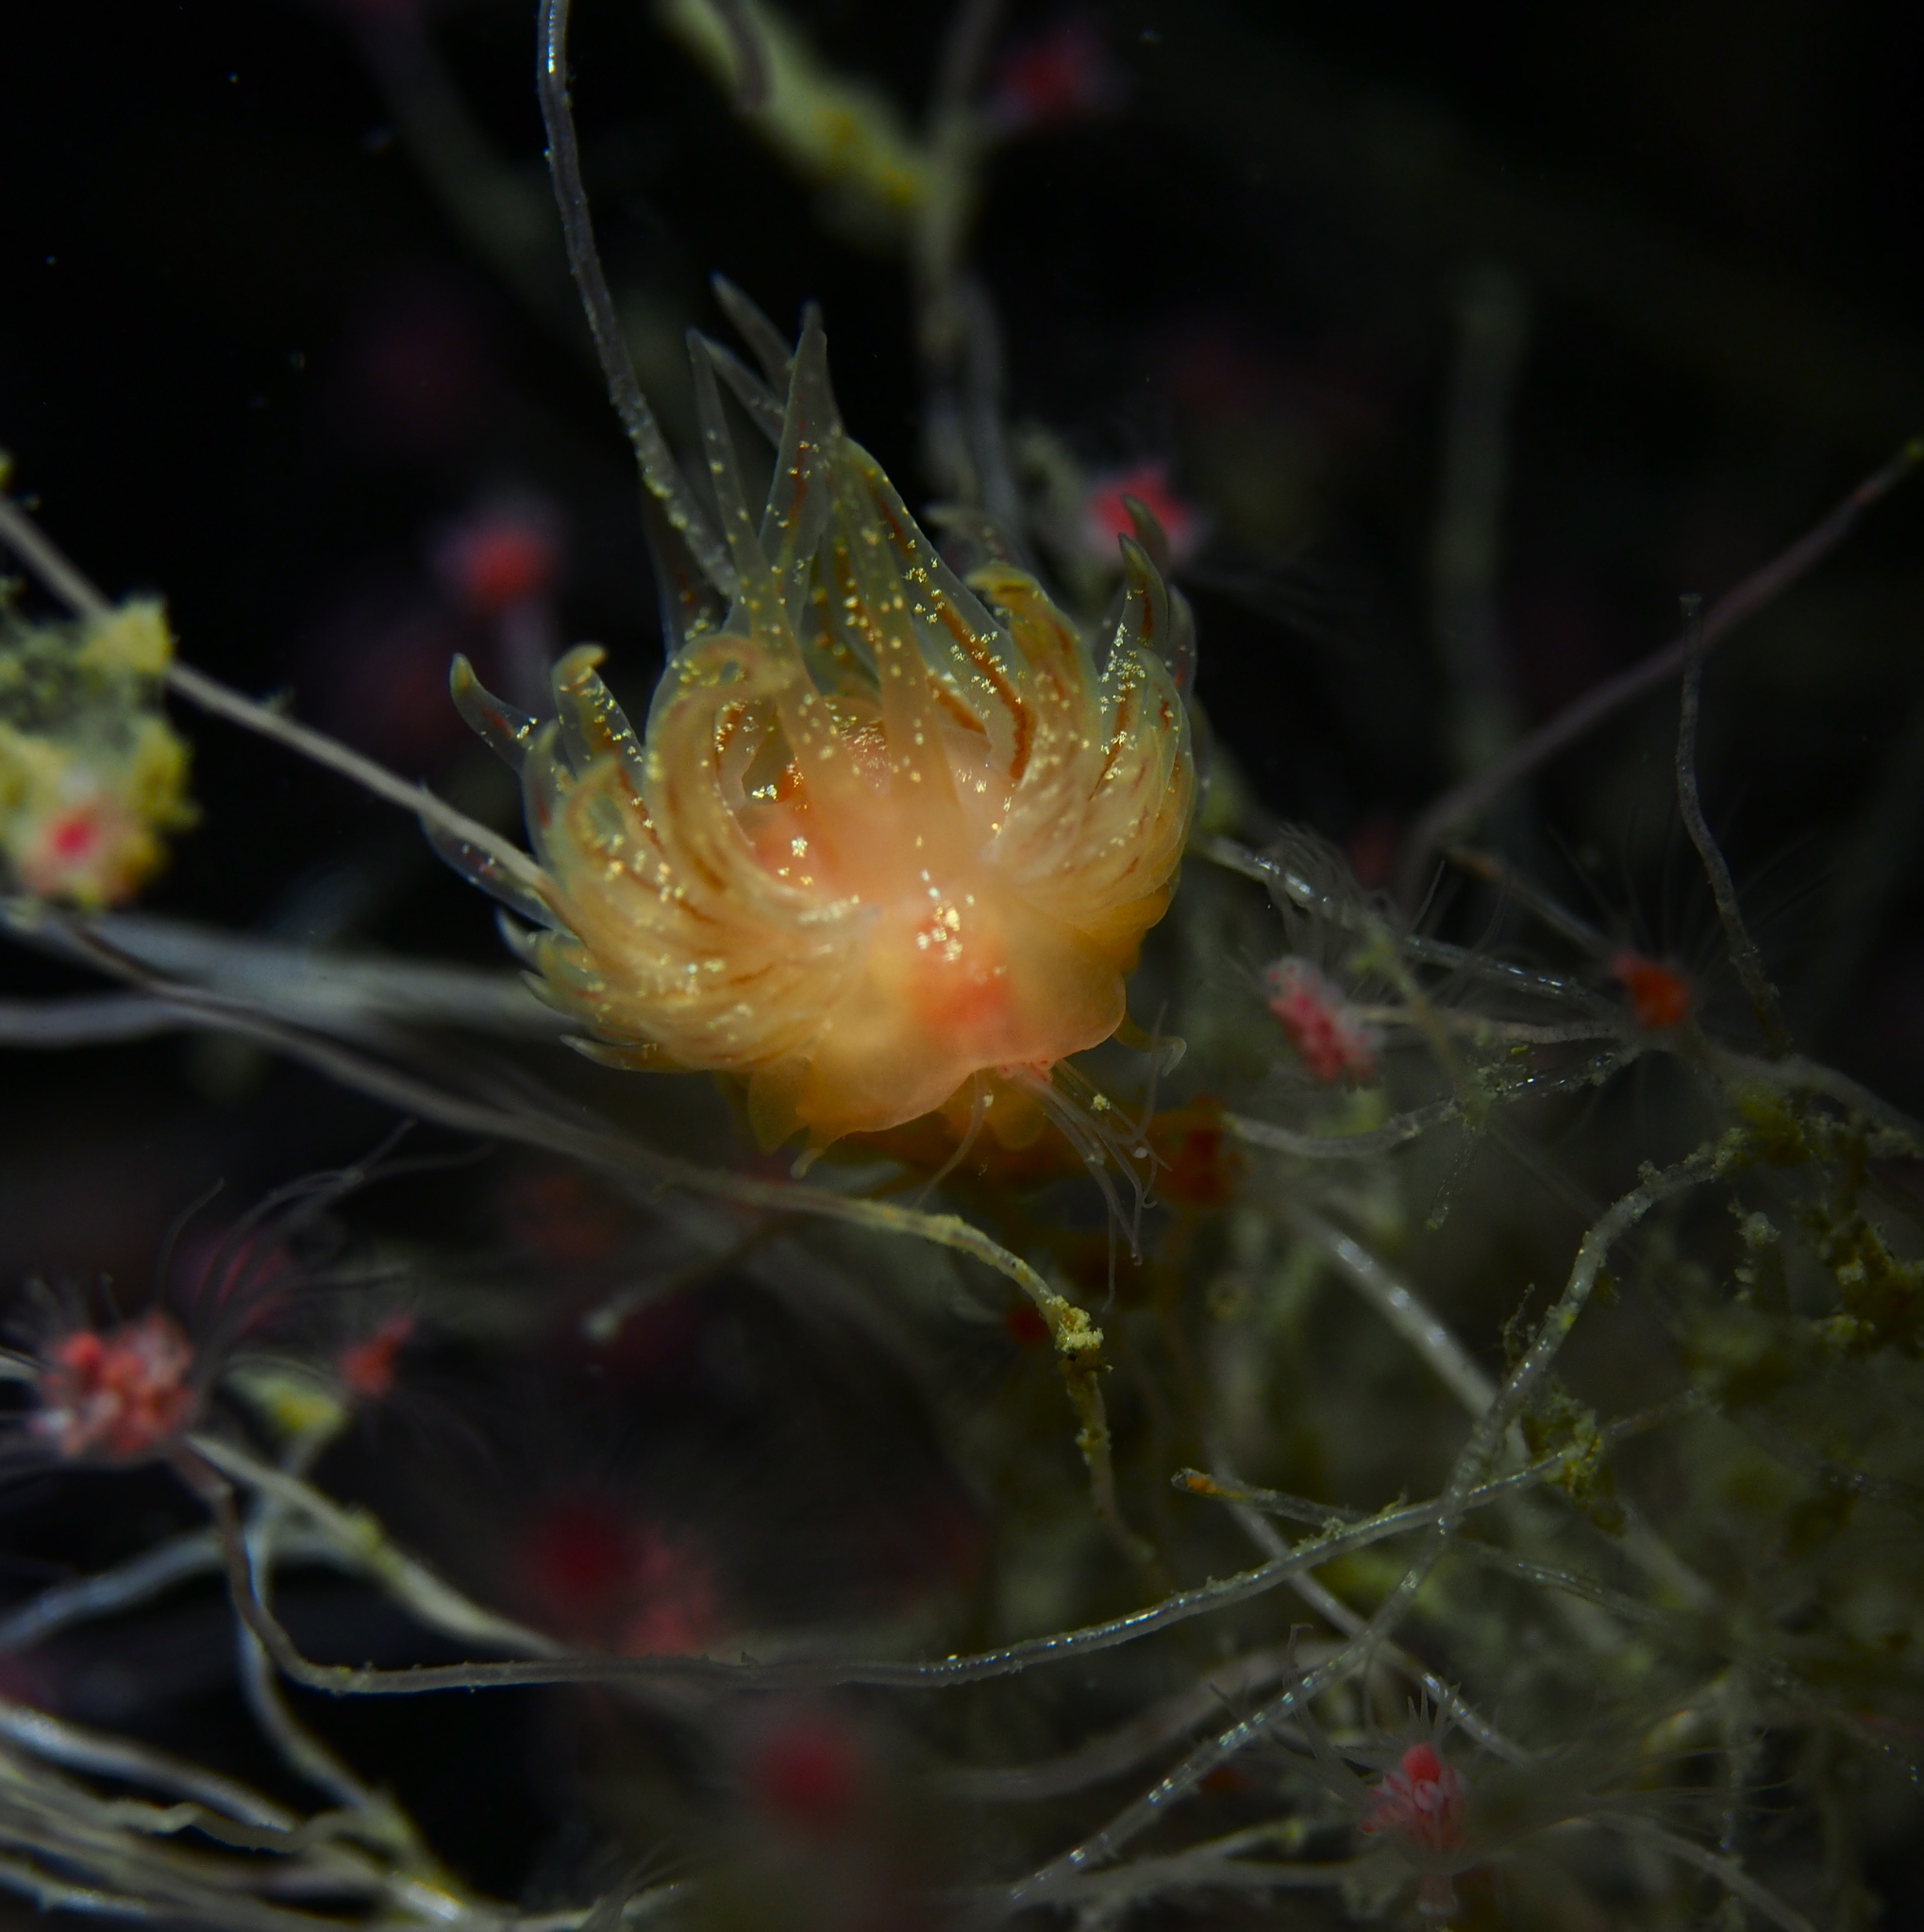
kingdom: Animalia
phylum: Mollusca
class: Gastropoda
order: Nudibranchia
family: Cumanotidae
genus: Cumanotus
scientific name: Cumanotus beaumonti
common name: Polyp aeolis
